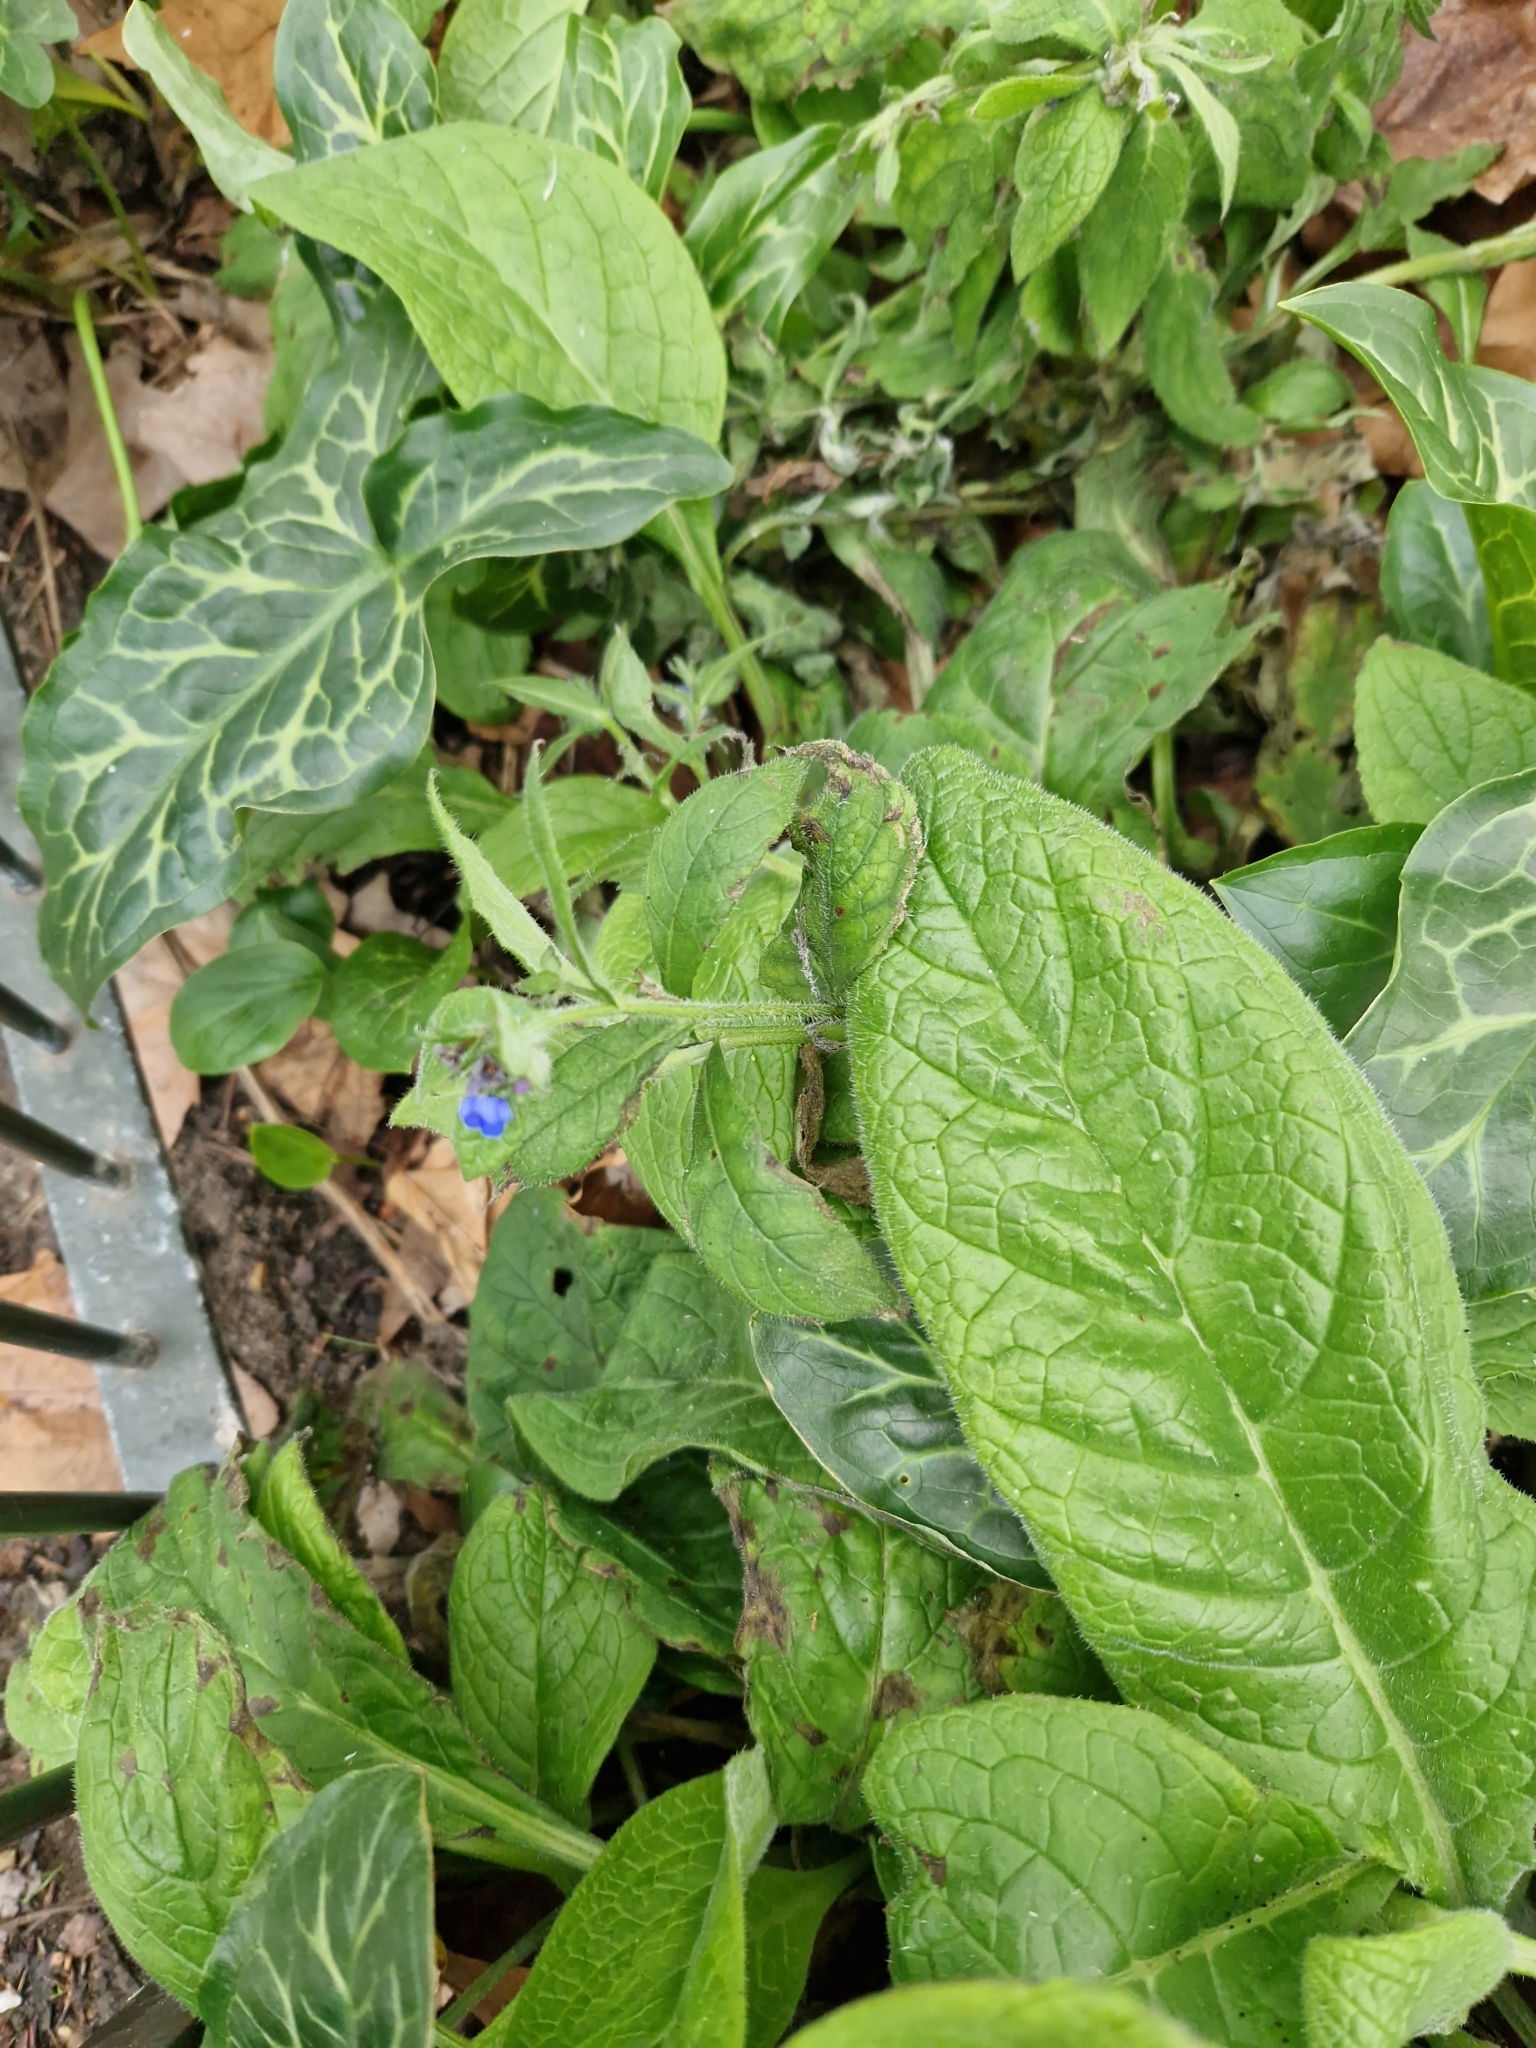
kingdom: Plantae
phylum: Tracheophyta
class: Magnoliopsida
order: Boraginales
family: Boraginaceae
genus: Pentaglottis
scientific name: Pentaglottis sempervirens
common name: Green alkanet
